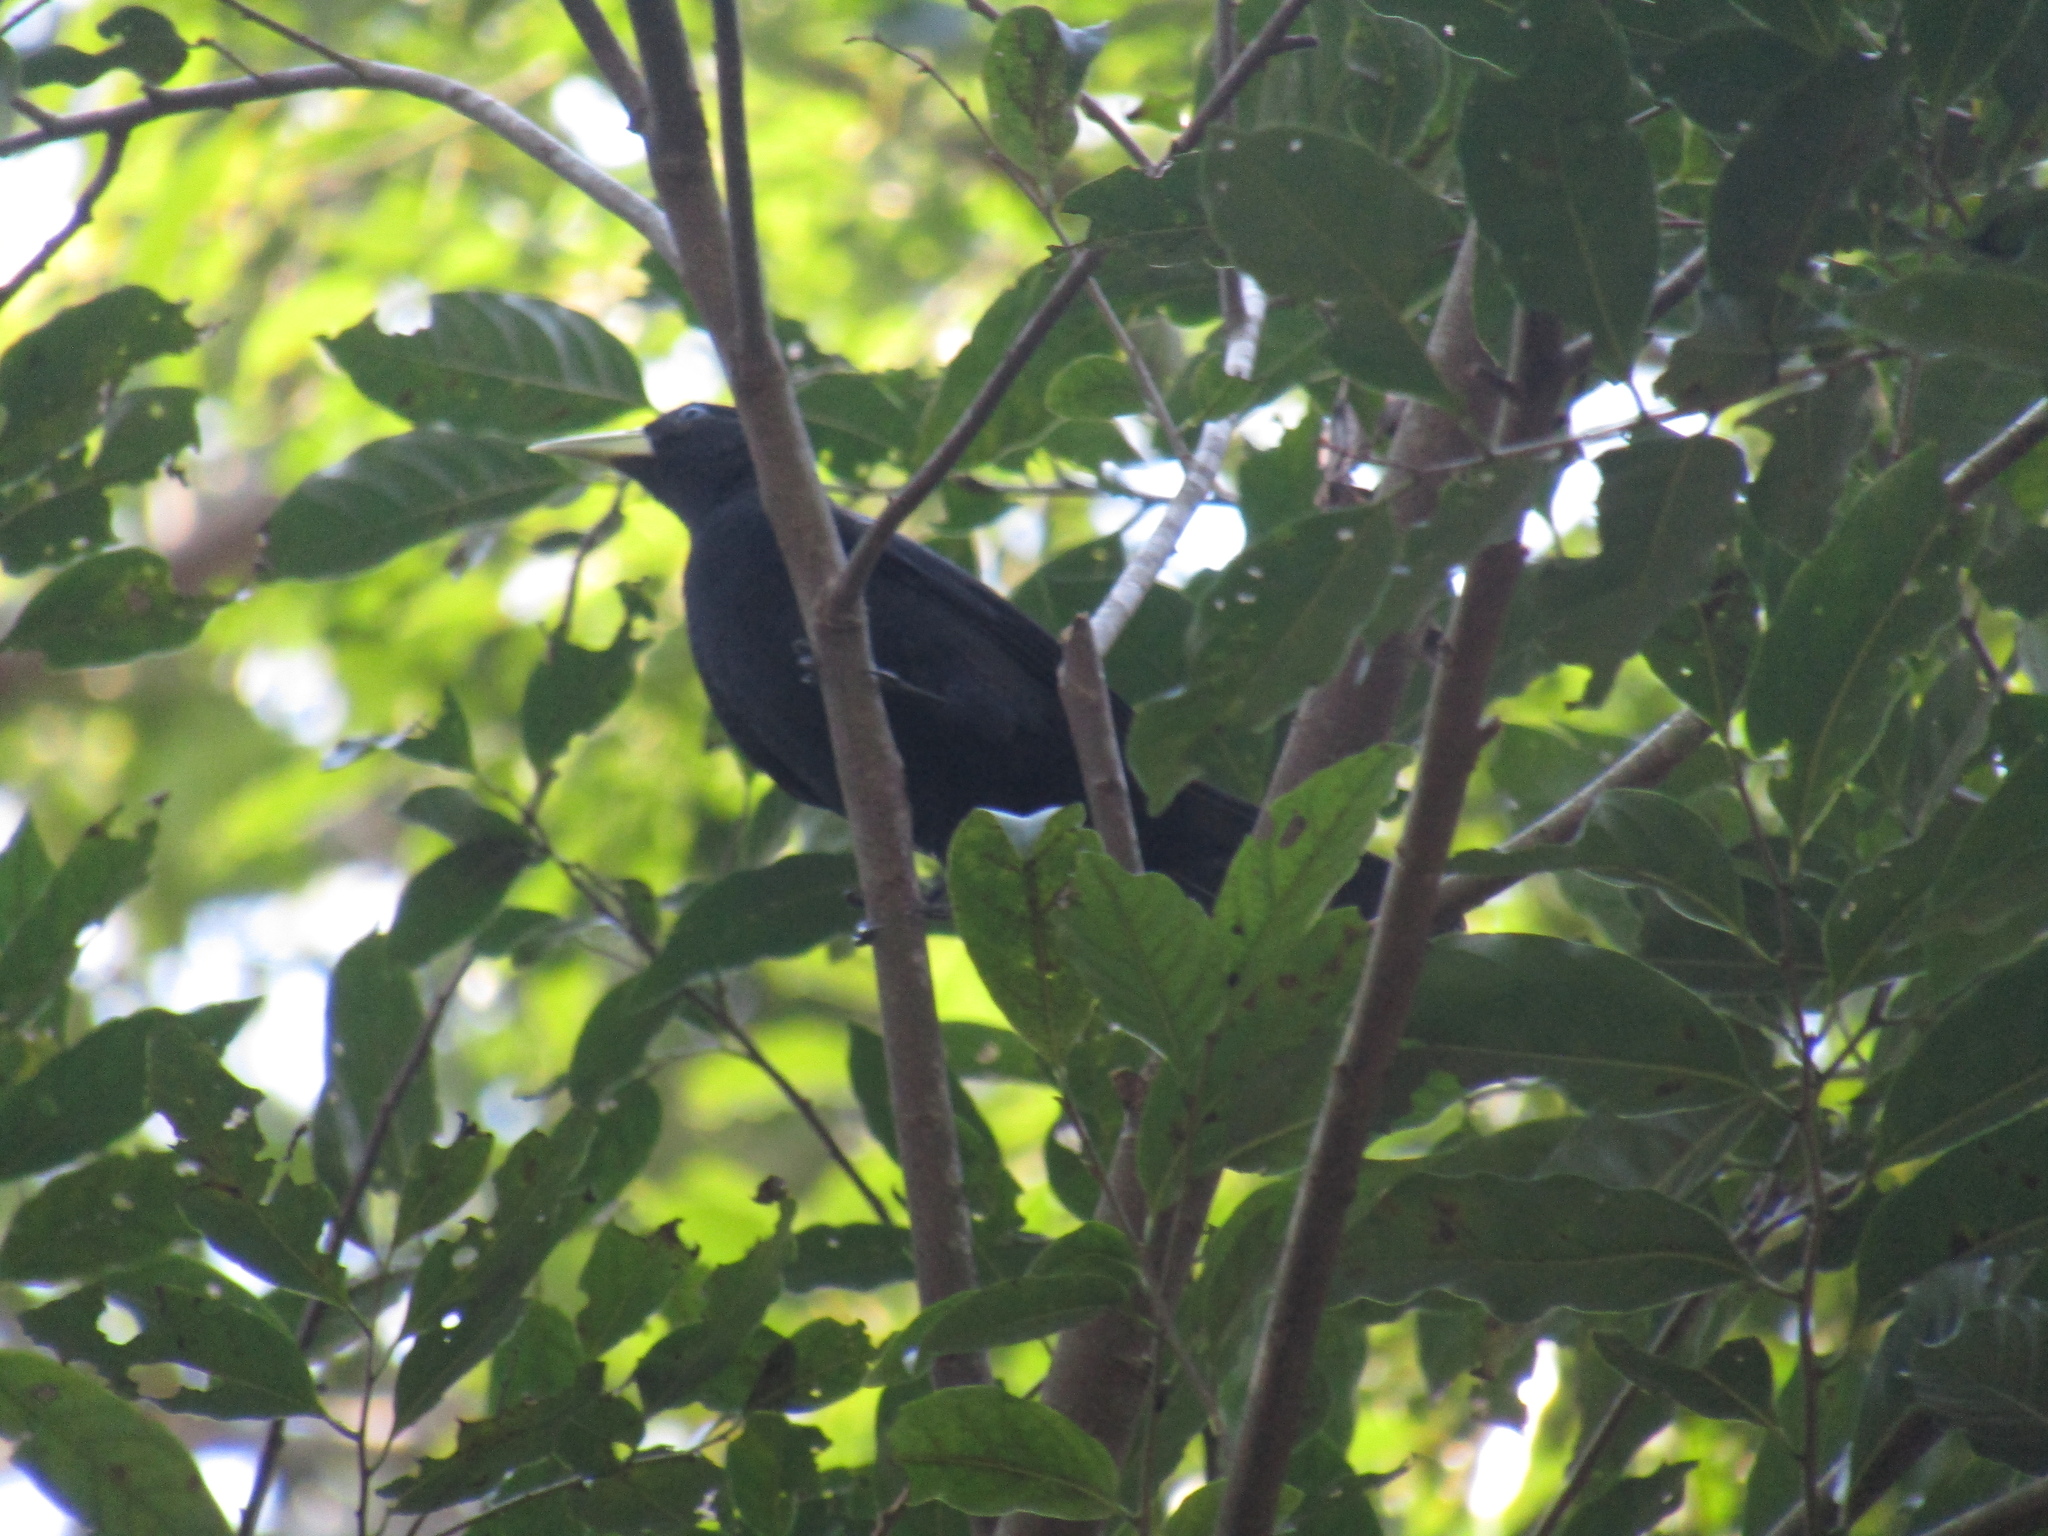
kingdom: Animalia
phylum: Chordata
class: Aves
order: Passeriformes
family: Icteridae
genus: Cacicus
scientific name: Cacicus haemorrhous
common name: Red-rumped cacique
